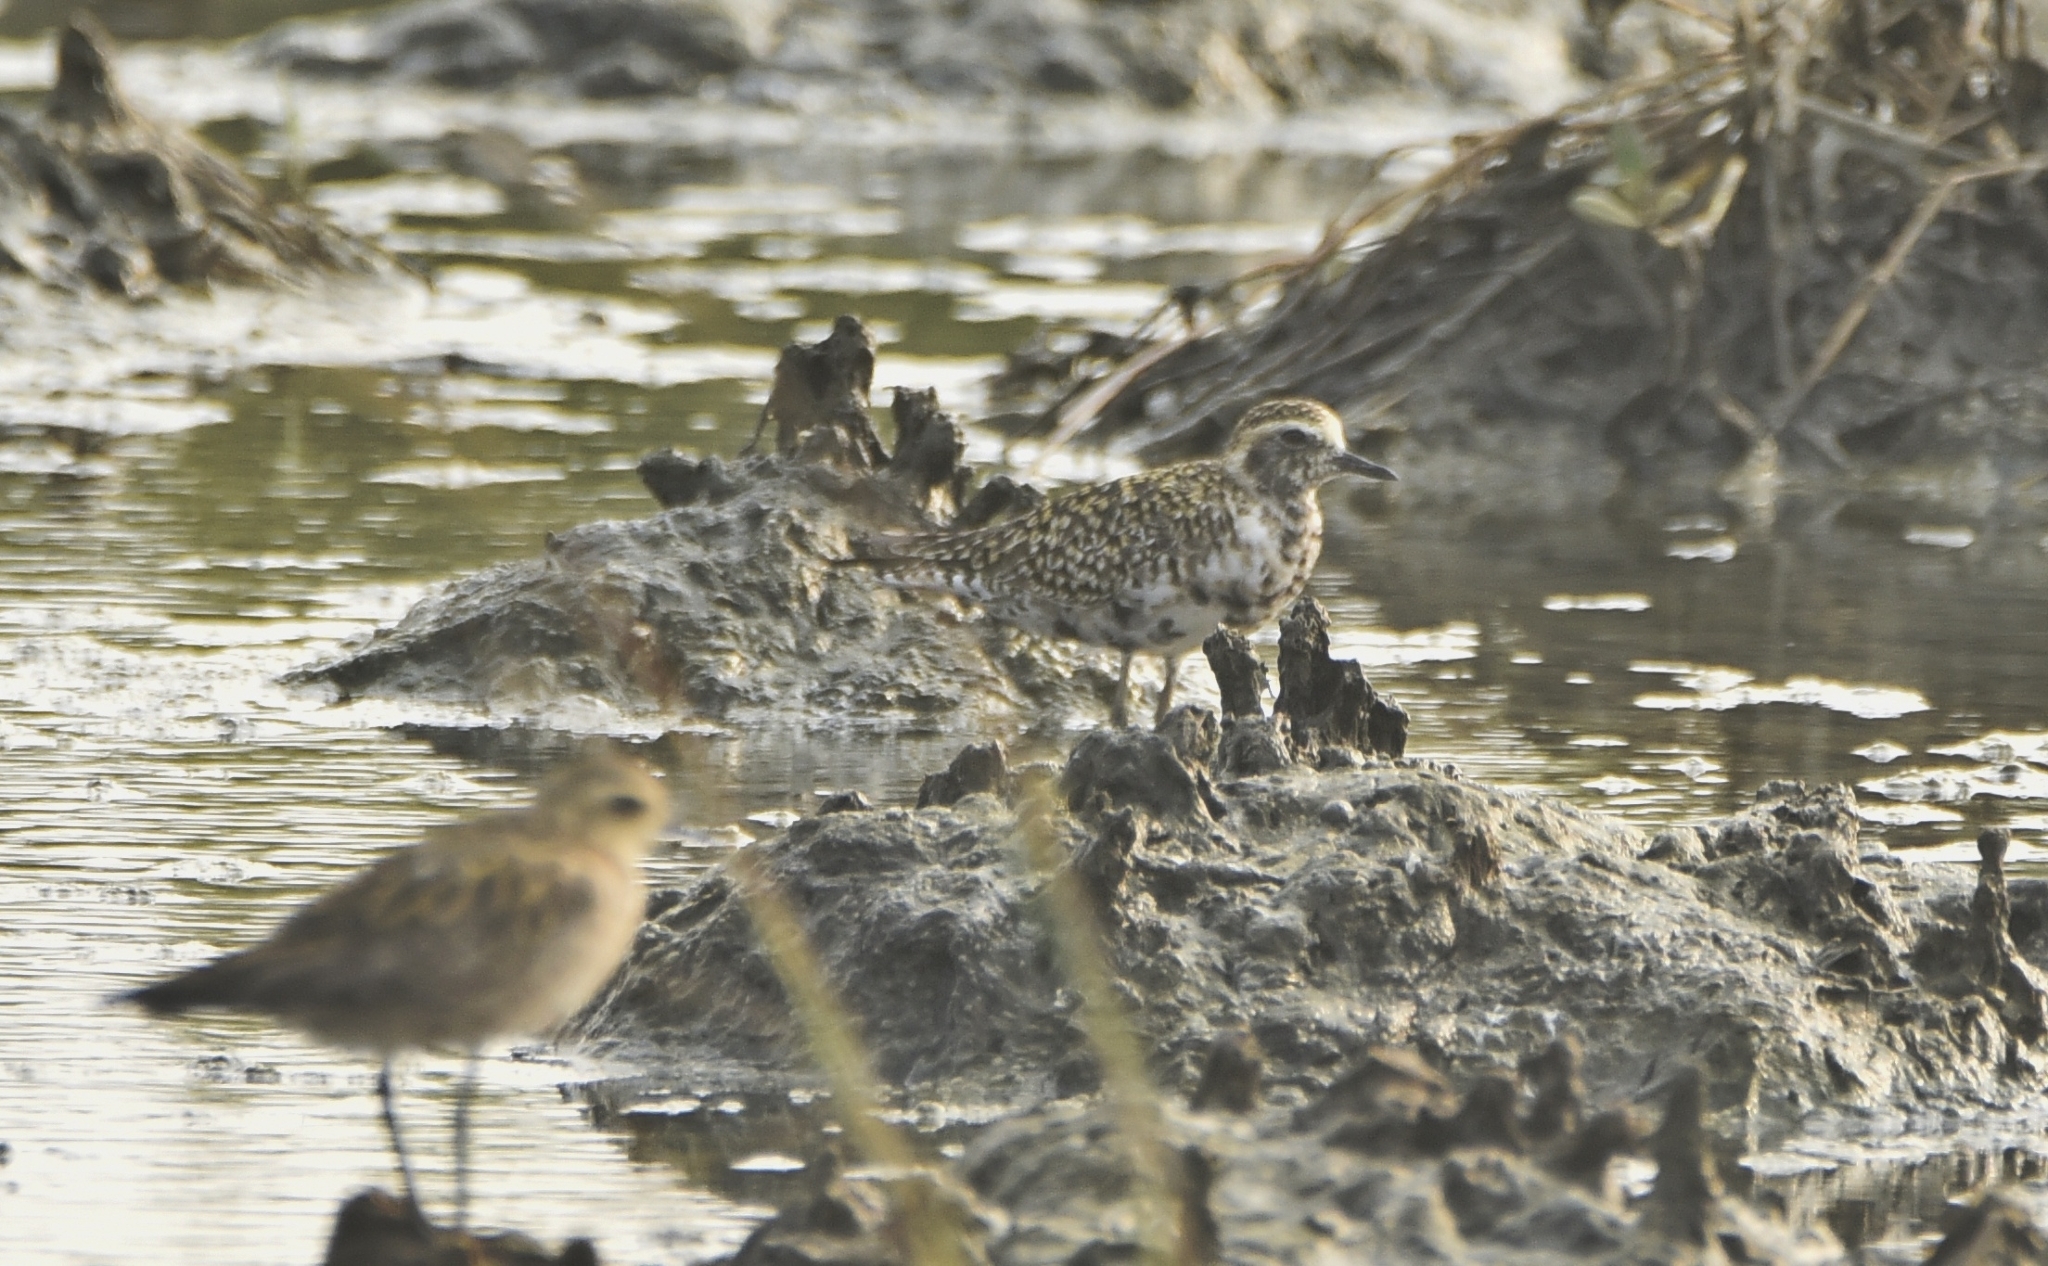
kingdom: Animalia
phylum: Chordata
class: Aves
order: Charadriiformes
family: Charadriidae
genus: Pluvialis
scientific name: Pluvialis fulva
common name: Pacific golden plover
